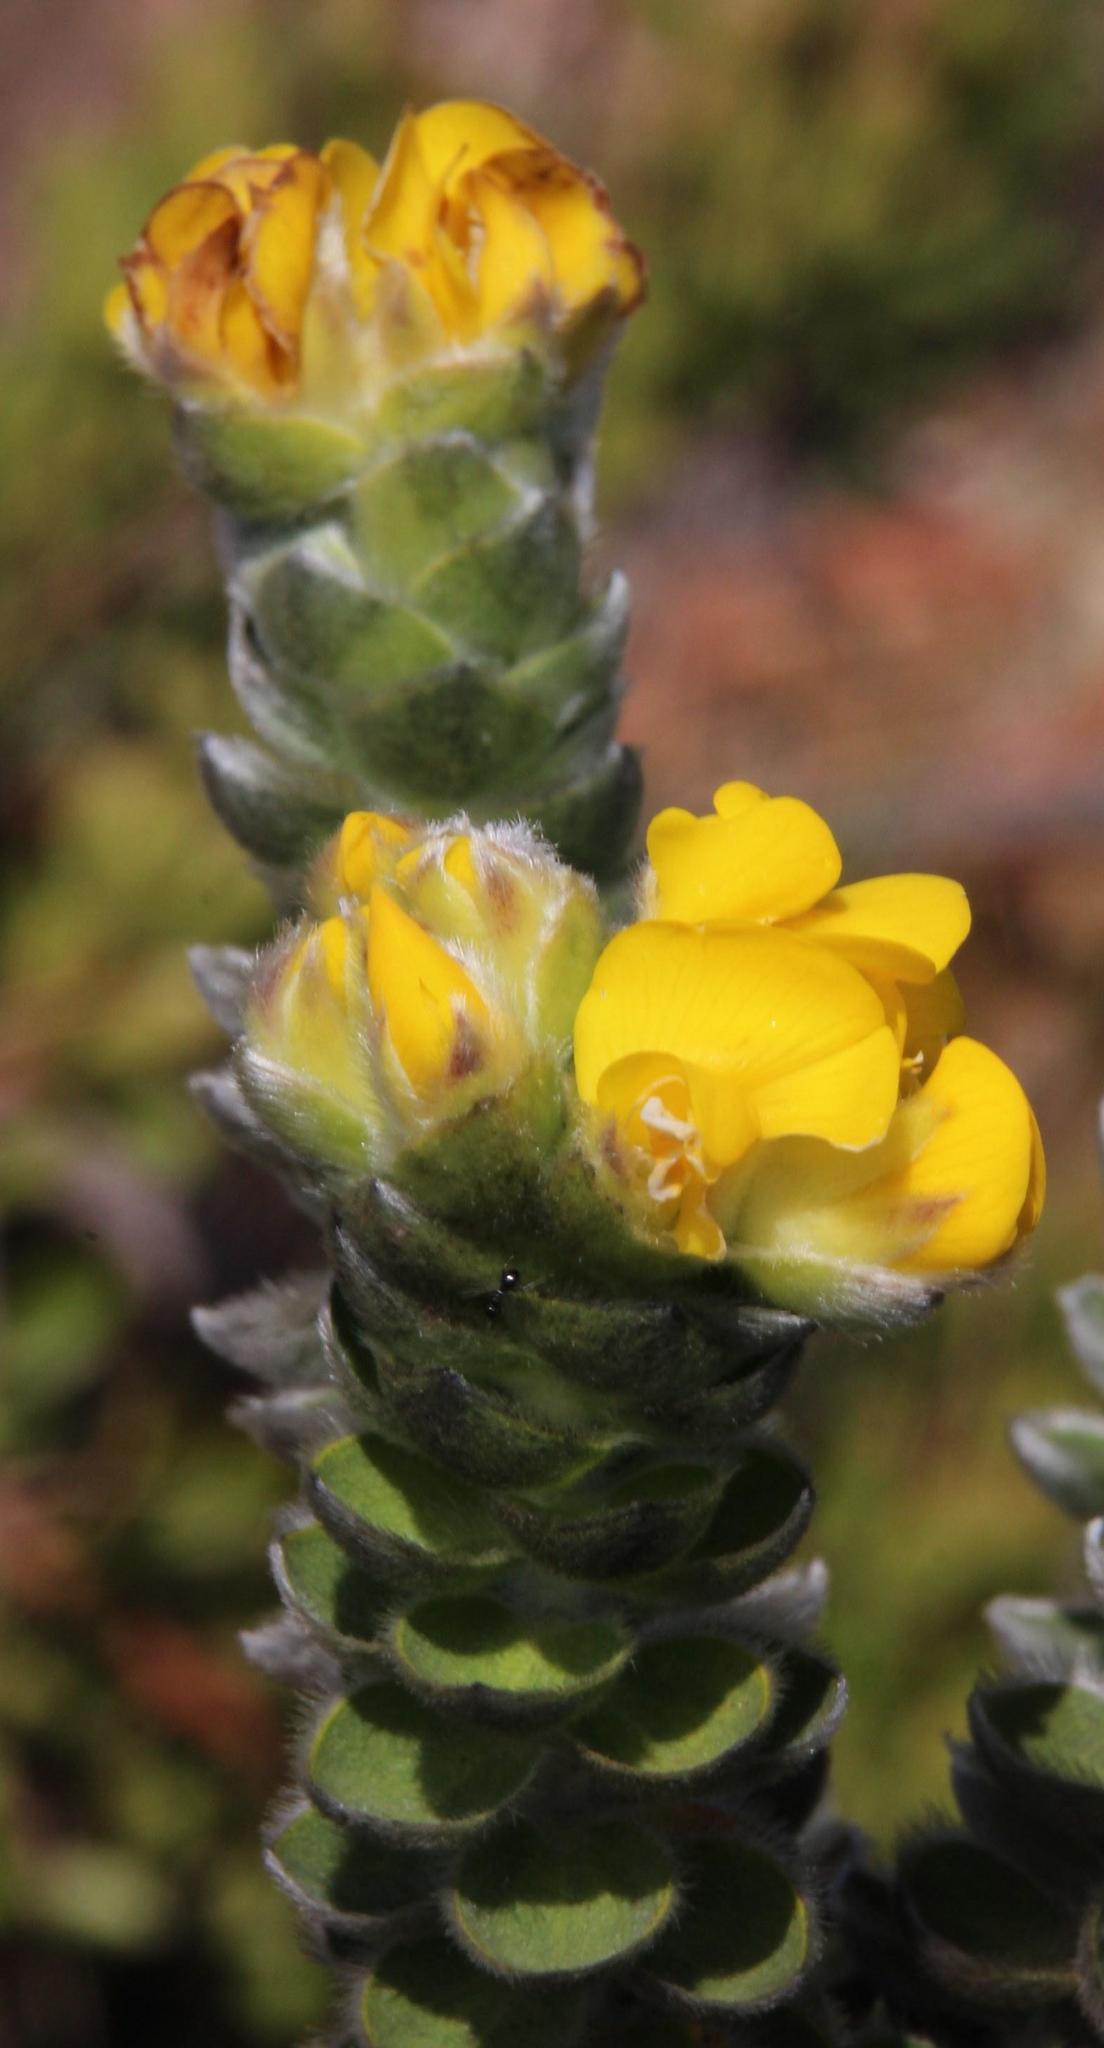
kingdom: Plantae
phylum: Tracheophyta
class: Magnoliopsida
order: Fabales
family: Fabaceae
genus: Liparia
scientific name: Liparia vestita
